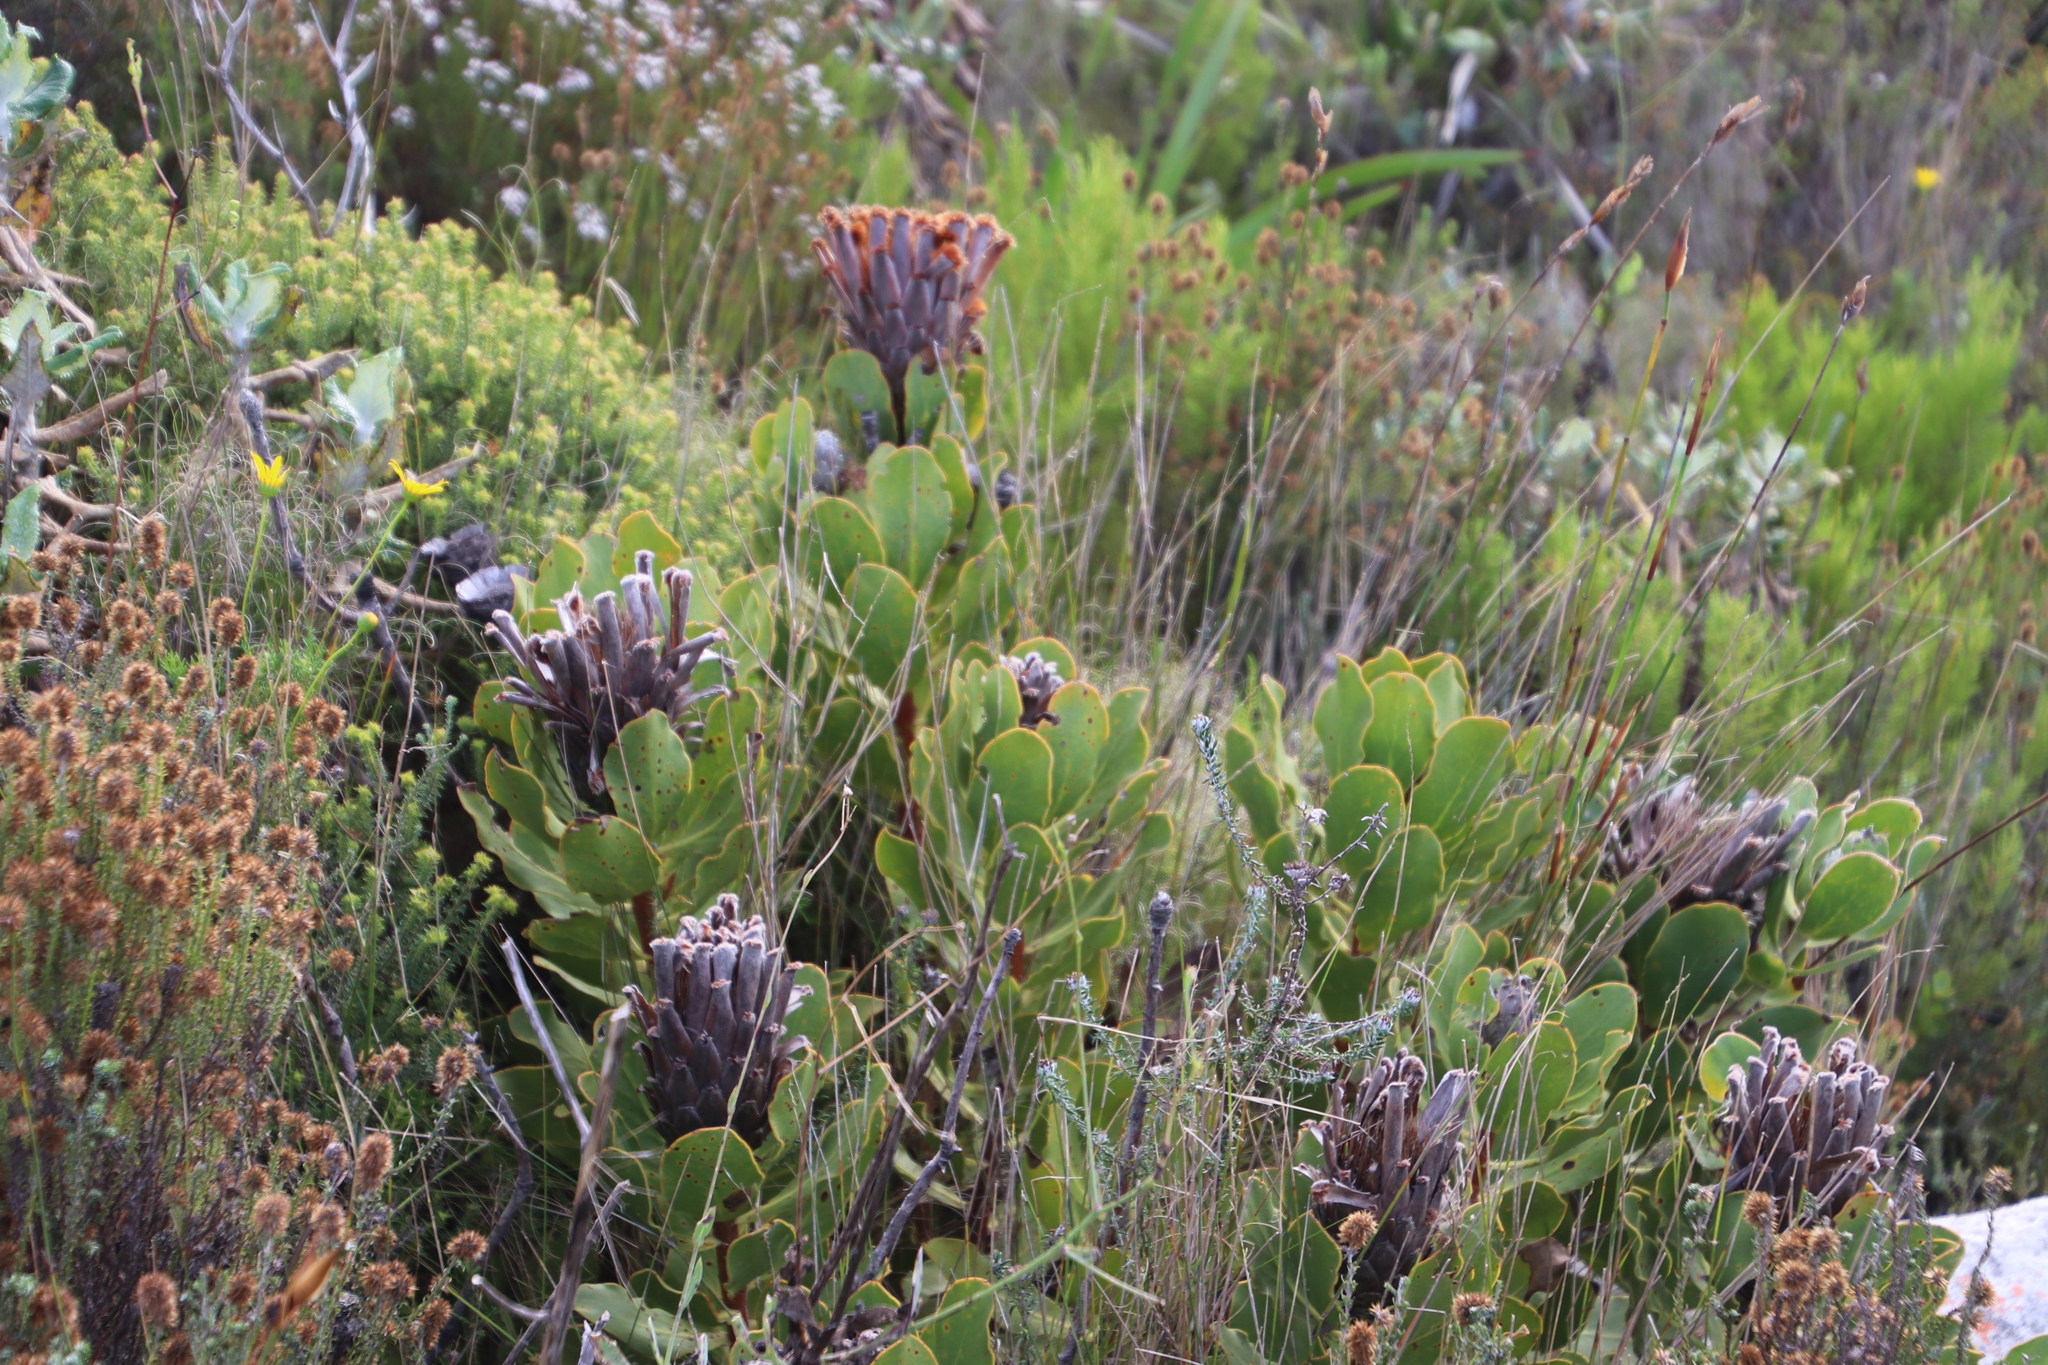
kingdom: Plantae
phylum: Tracheophyta
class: Magnoliopsida
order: Proteales
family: Proteaceae
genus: Protea
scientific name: Protea speciosa
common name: Brown-beard sugarbush
